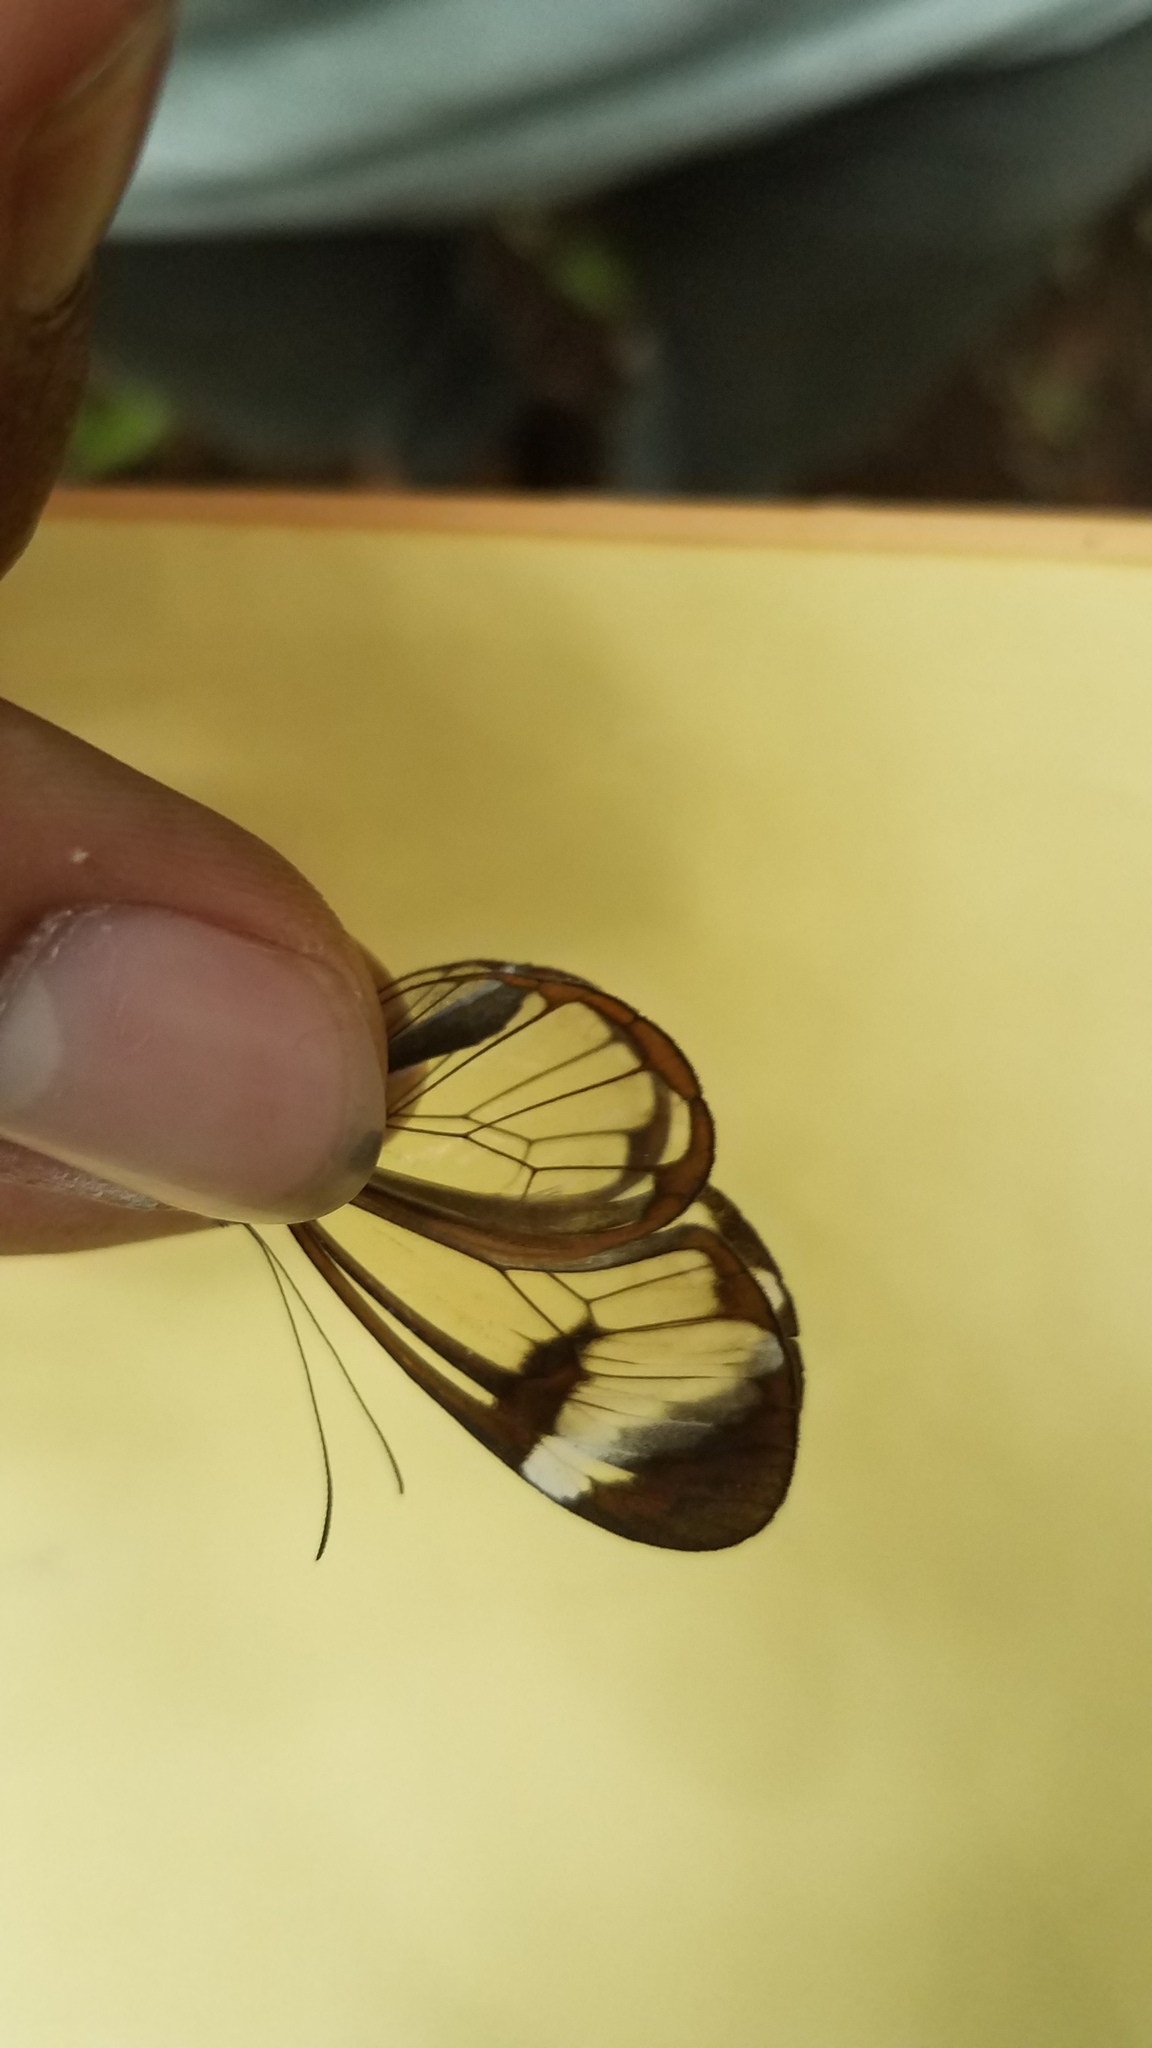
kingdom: Animalia
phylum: Arthropoda
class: Insecta
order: Lepidoptera
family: Nymphalidae
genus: Greta
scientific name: Greta morgane
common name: Thick-tipped greta
